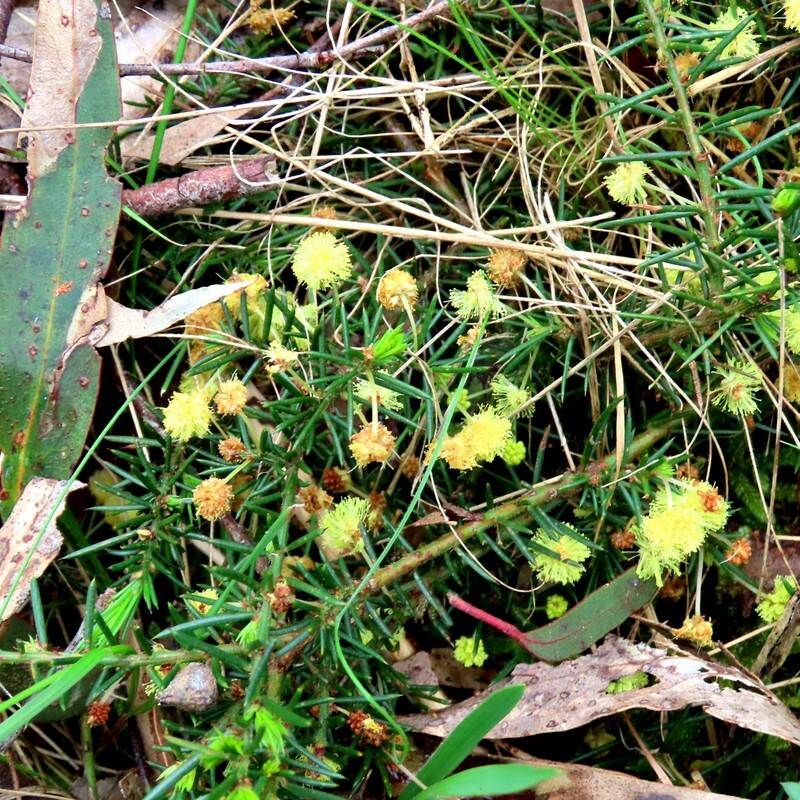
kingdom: Plantae
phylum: Tracheophyta
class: Magnoliopsida
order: Fabales
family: Fabaceae
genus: Acacia
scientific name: Acacia aculeatissima
